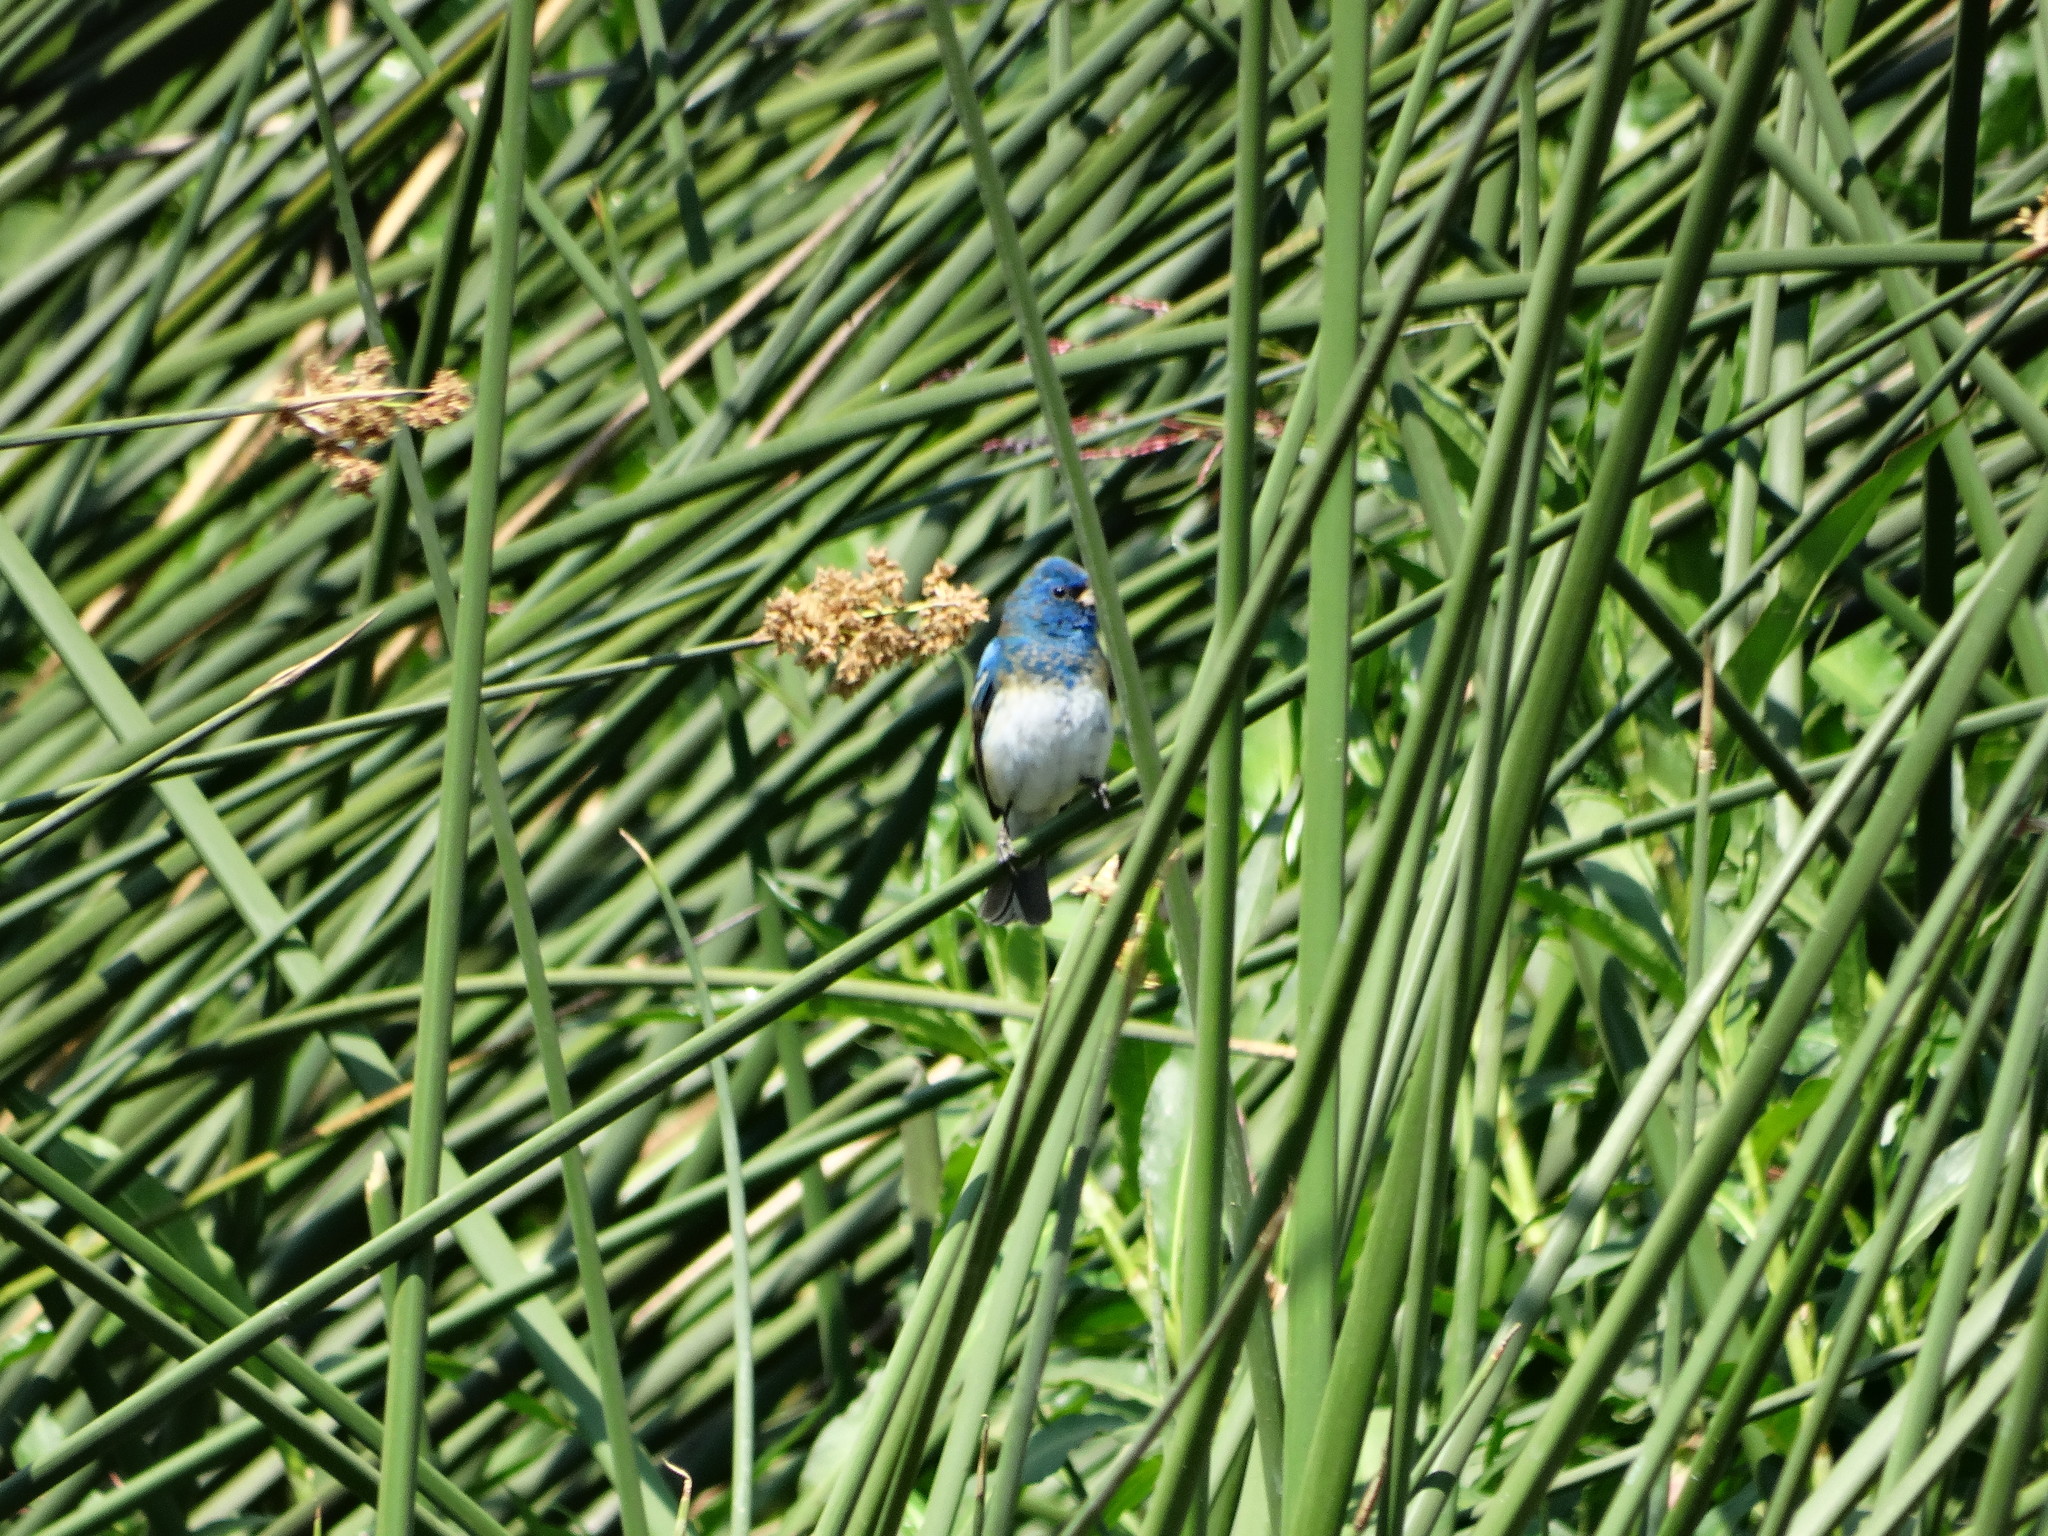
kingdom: Animalia
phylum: Chordata
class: Aves
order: Passeriformes
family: Cardinalidae
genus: Passerina
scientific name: Passerina
